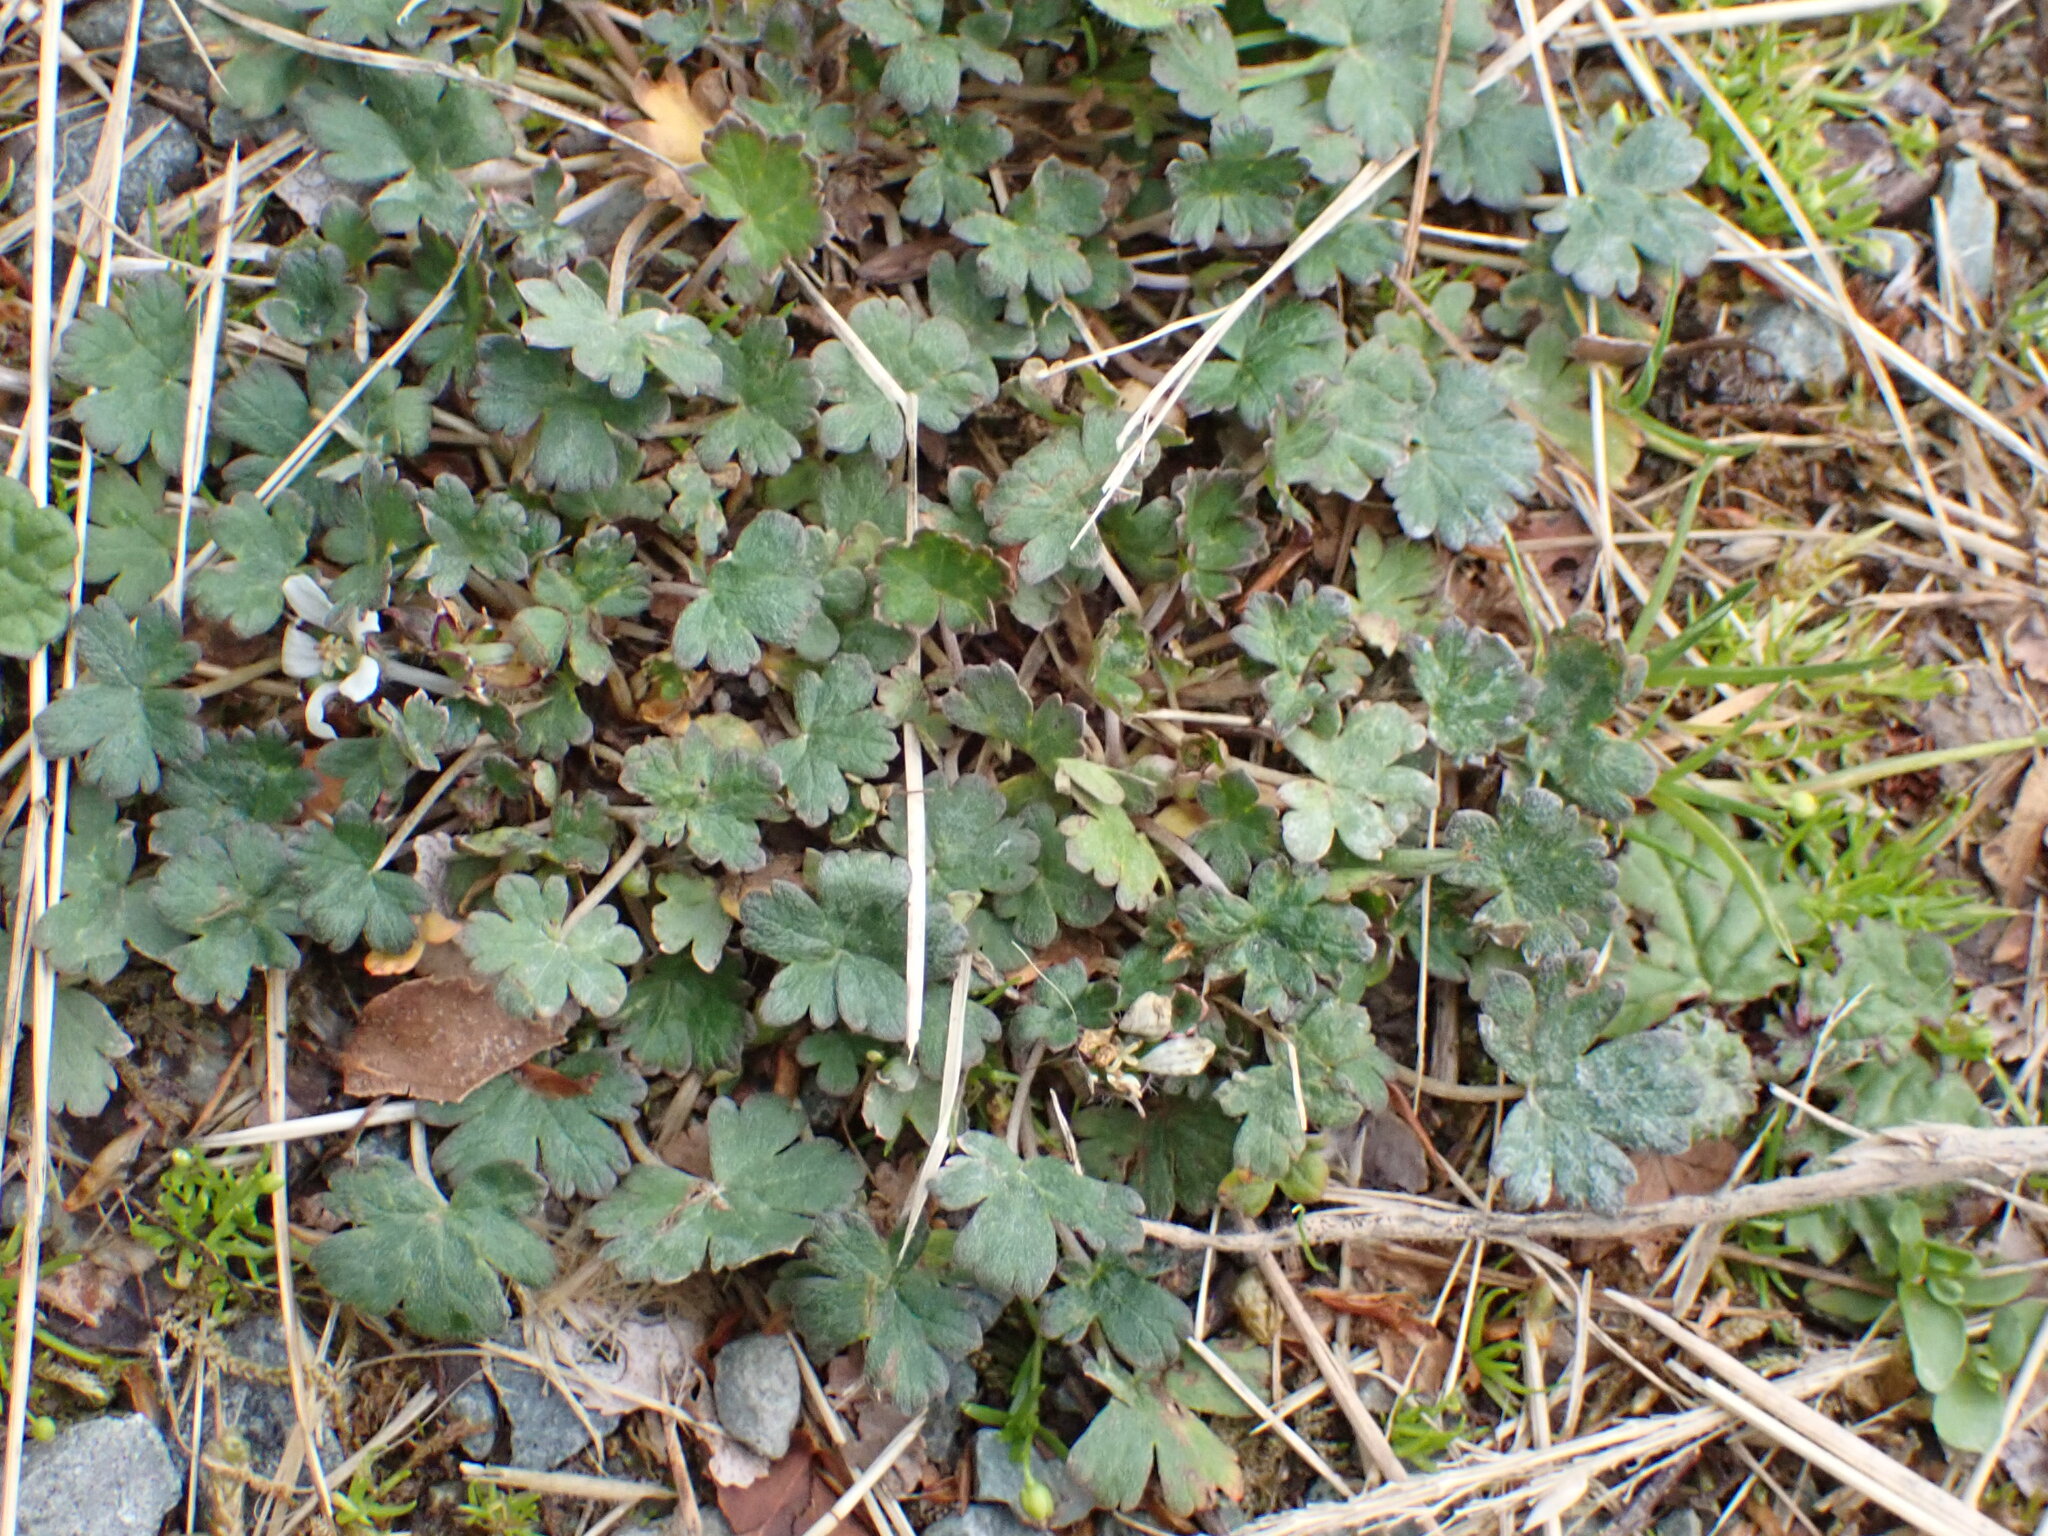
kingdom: Plantae
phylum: Tracheophyta
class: Magnoliopsida
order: Geraniales
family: Geraniaceae
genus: Geranium
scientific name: Geranium brevicaule
